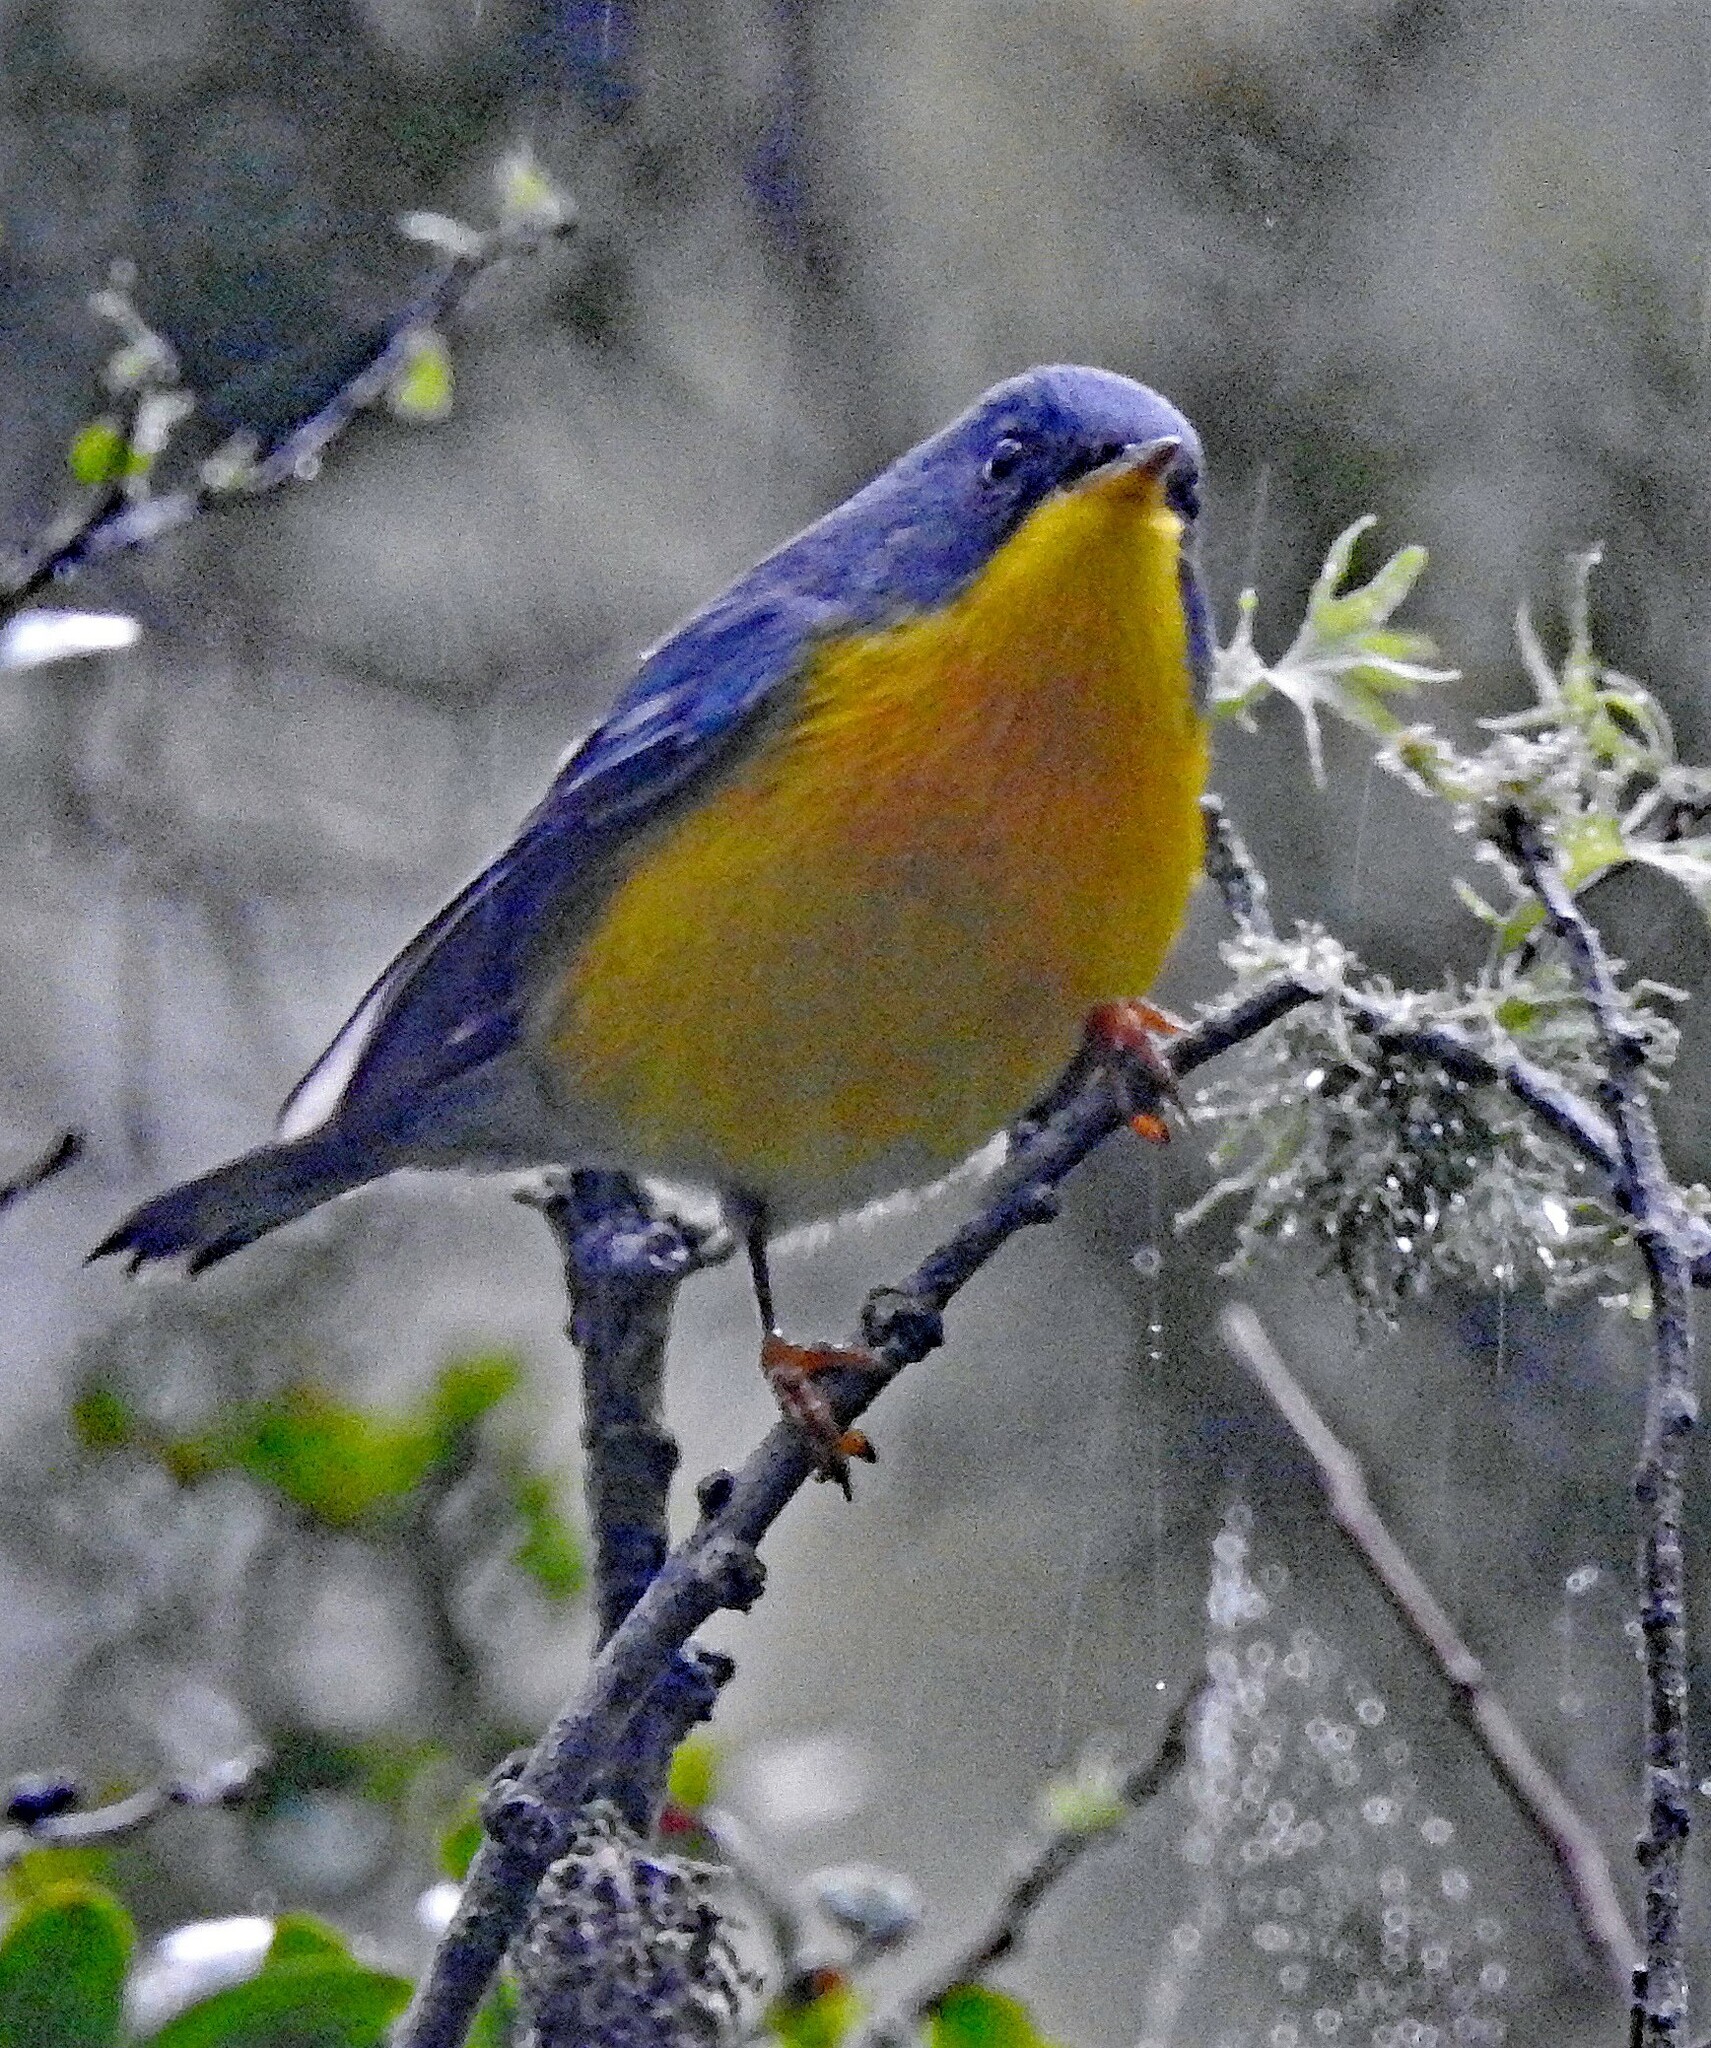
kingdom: Animalia
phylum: Chordata
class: Aves
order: Passeriformes
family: Parulidae
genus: Setophaga
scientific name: Setophaga pitiayumi
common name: Tropical parula
